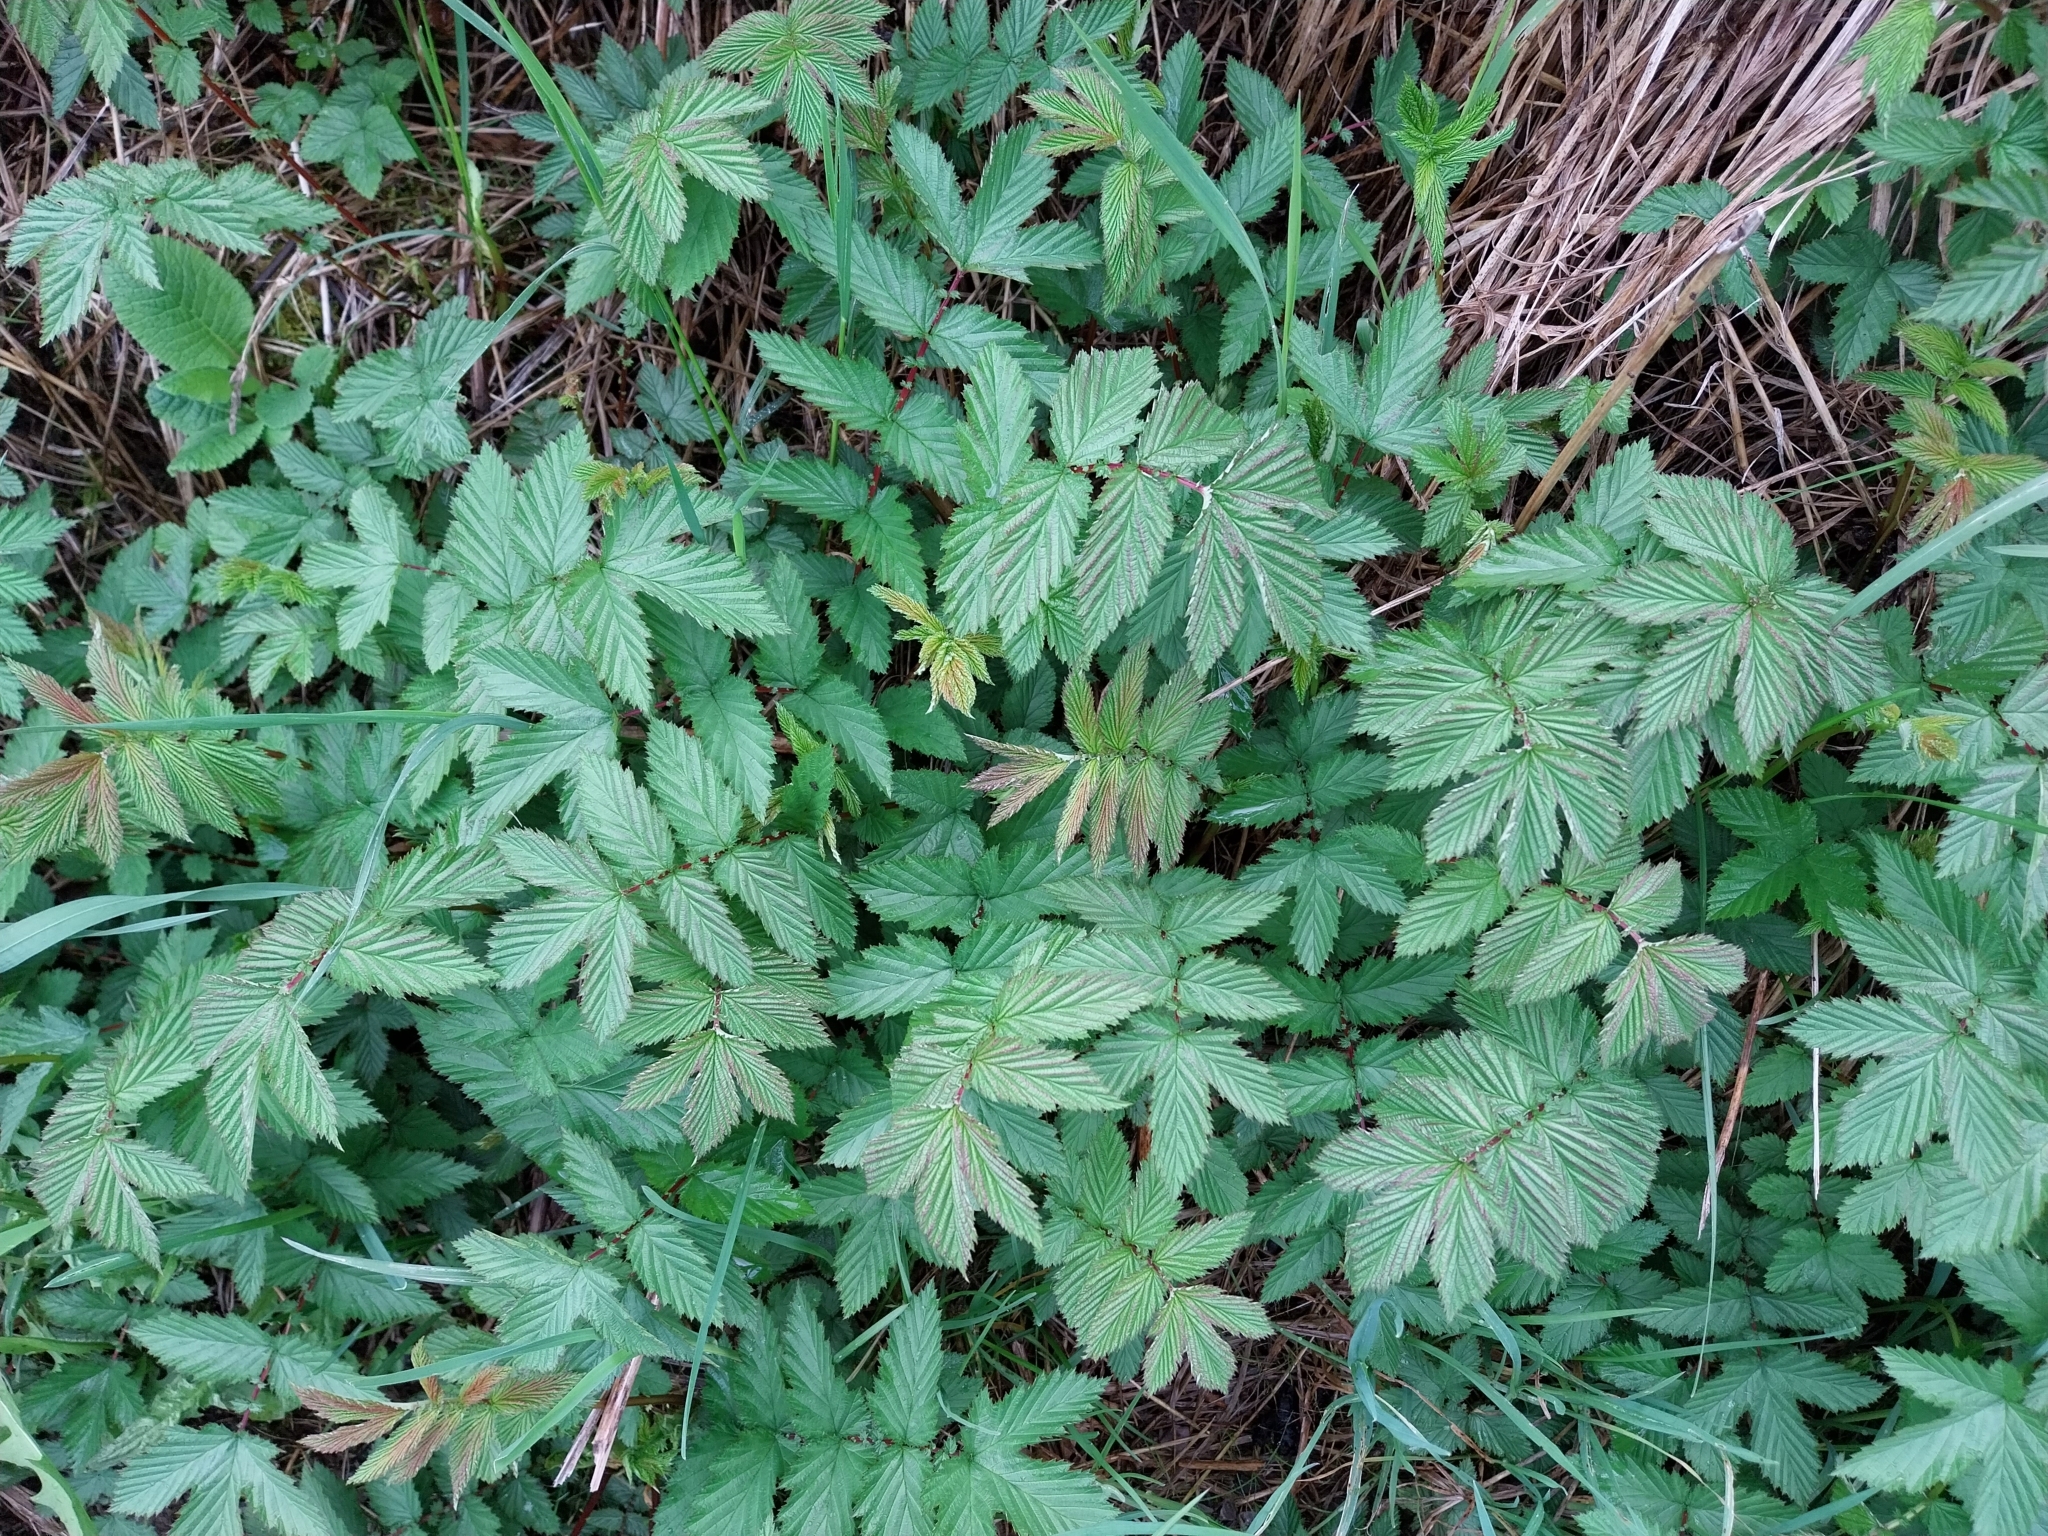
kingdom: Plantae
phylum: Tracheophyta
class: Magnoliopsida
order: Rosales
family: Rosaceae
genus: Filipendula
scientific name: Filipendula ulmaria
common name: Meadowsweet
